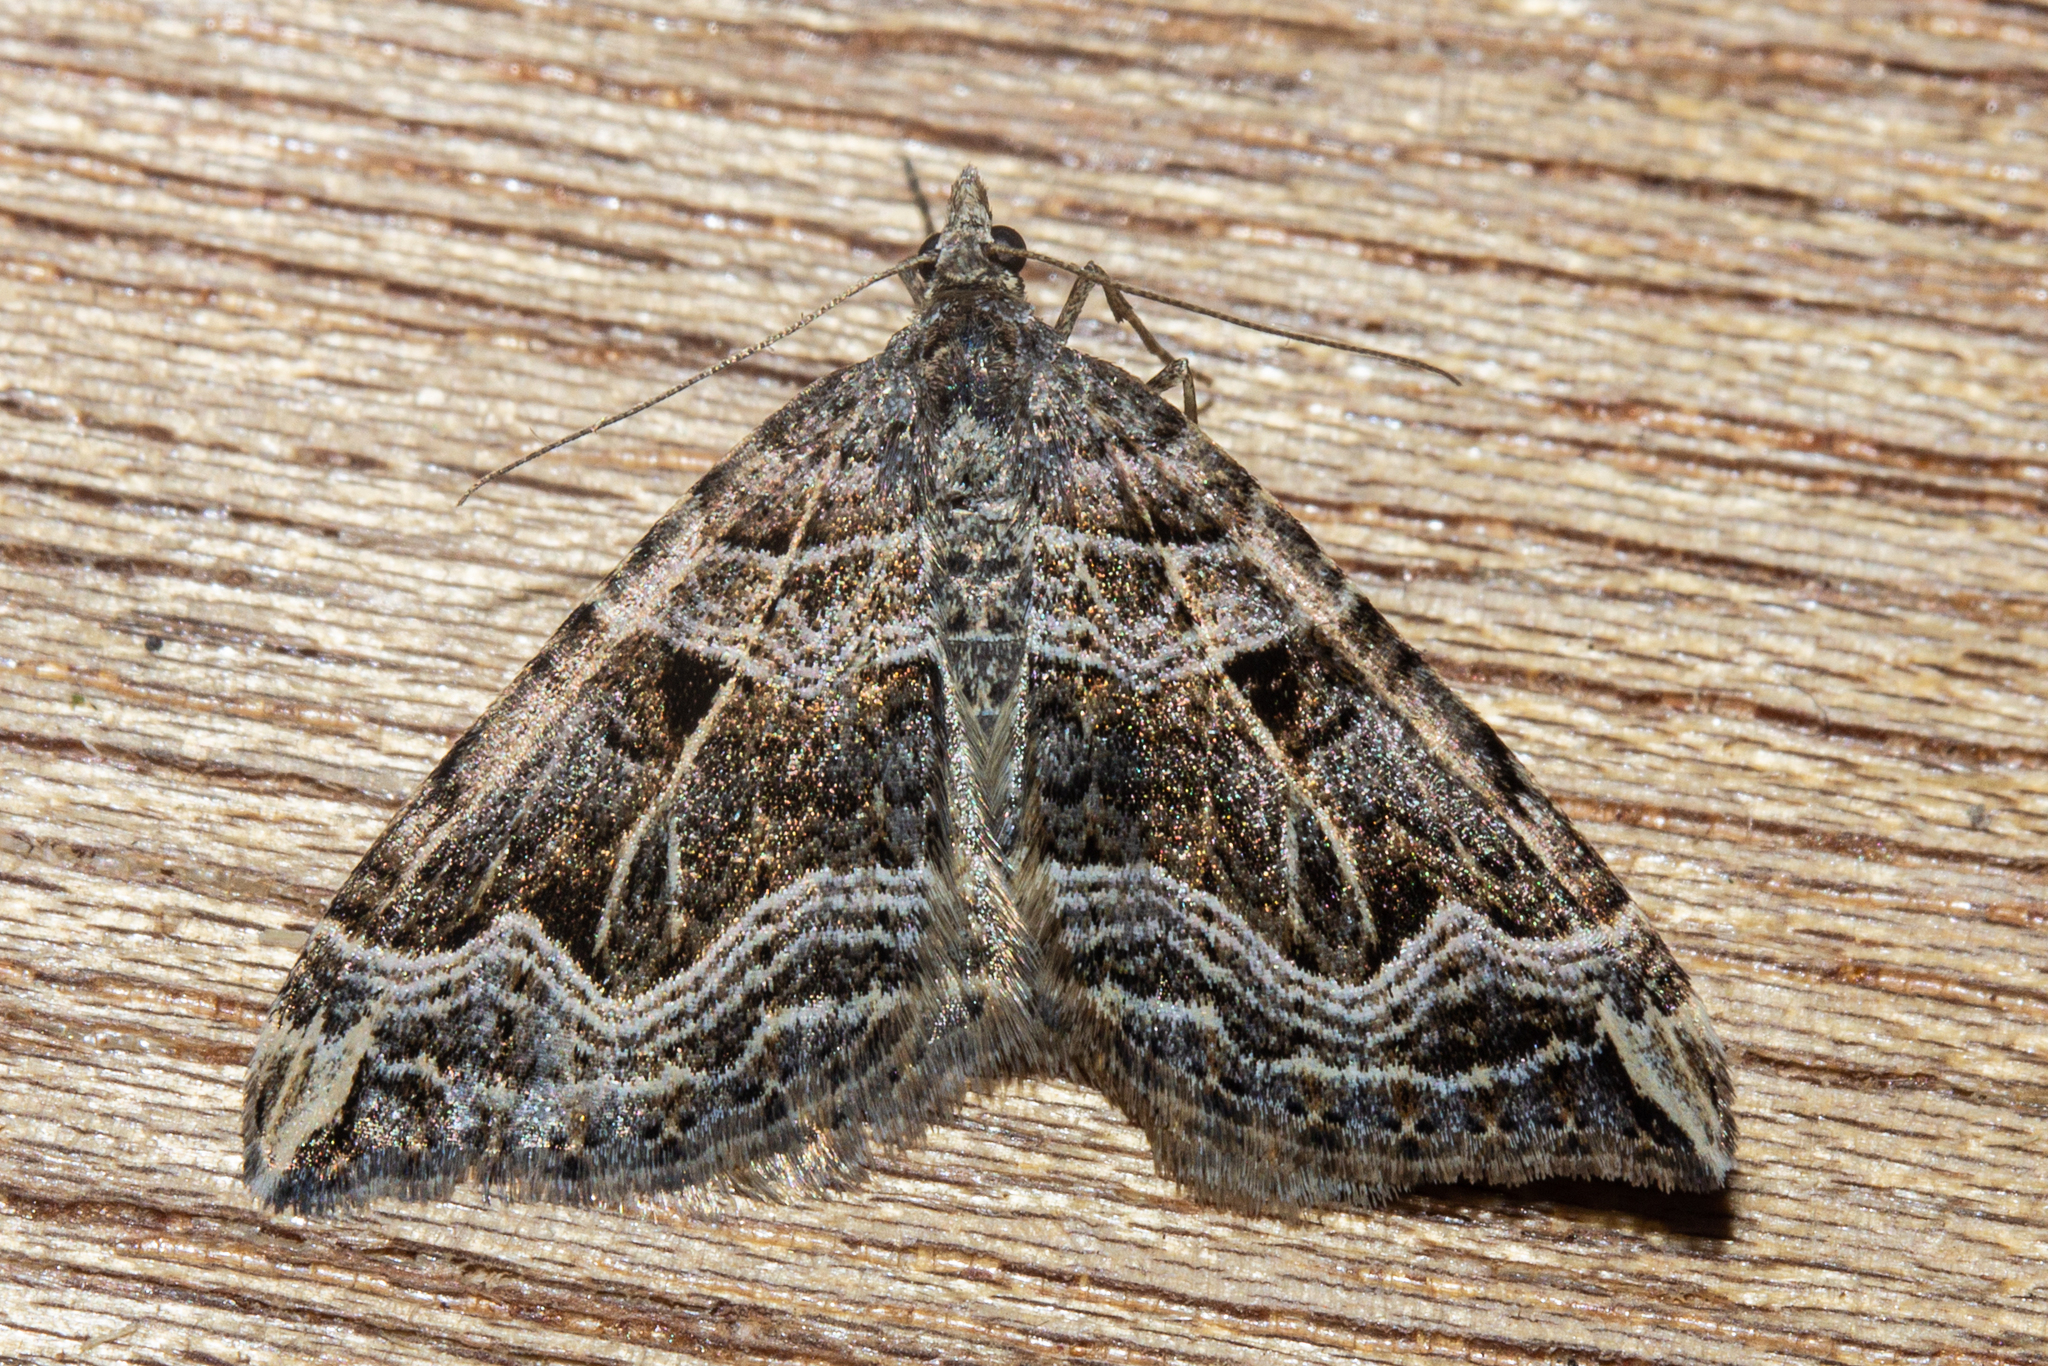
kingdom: Animalia
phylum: Arthropoda
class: Insecta
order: Lepidoptera
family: Geometridae
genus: Xanthorhoe
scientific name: Xanthorhoe semifissata
